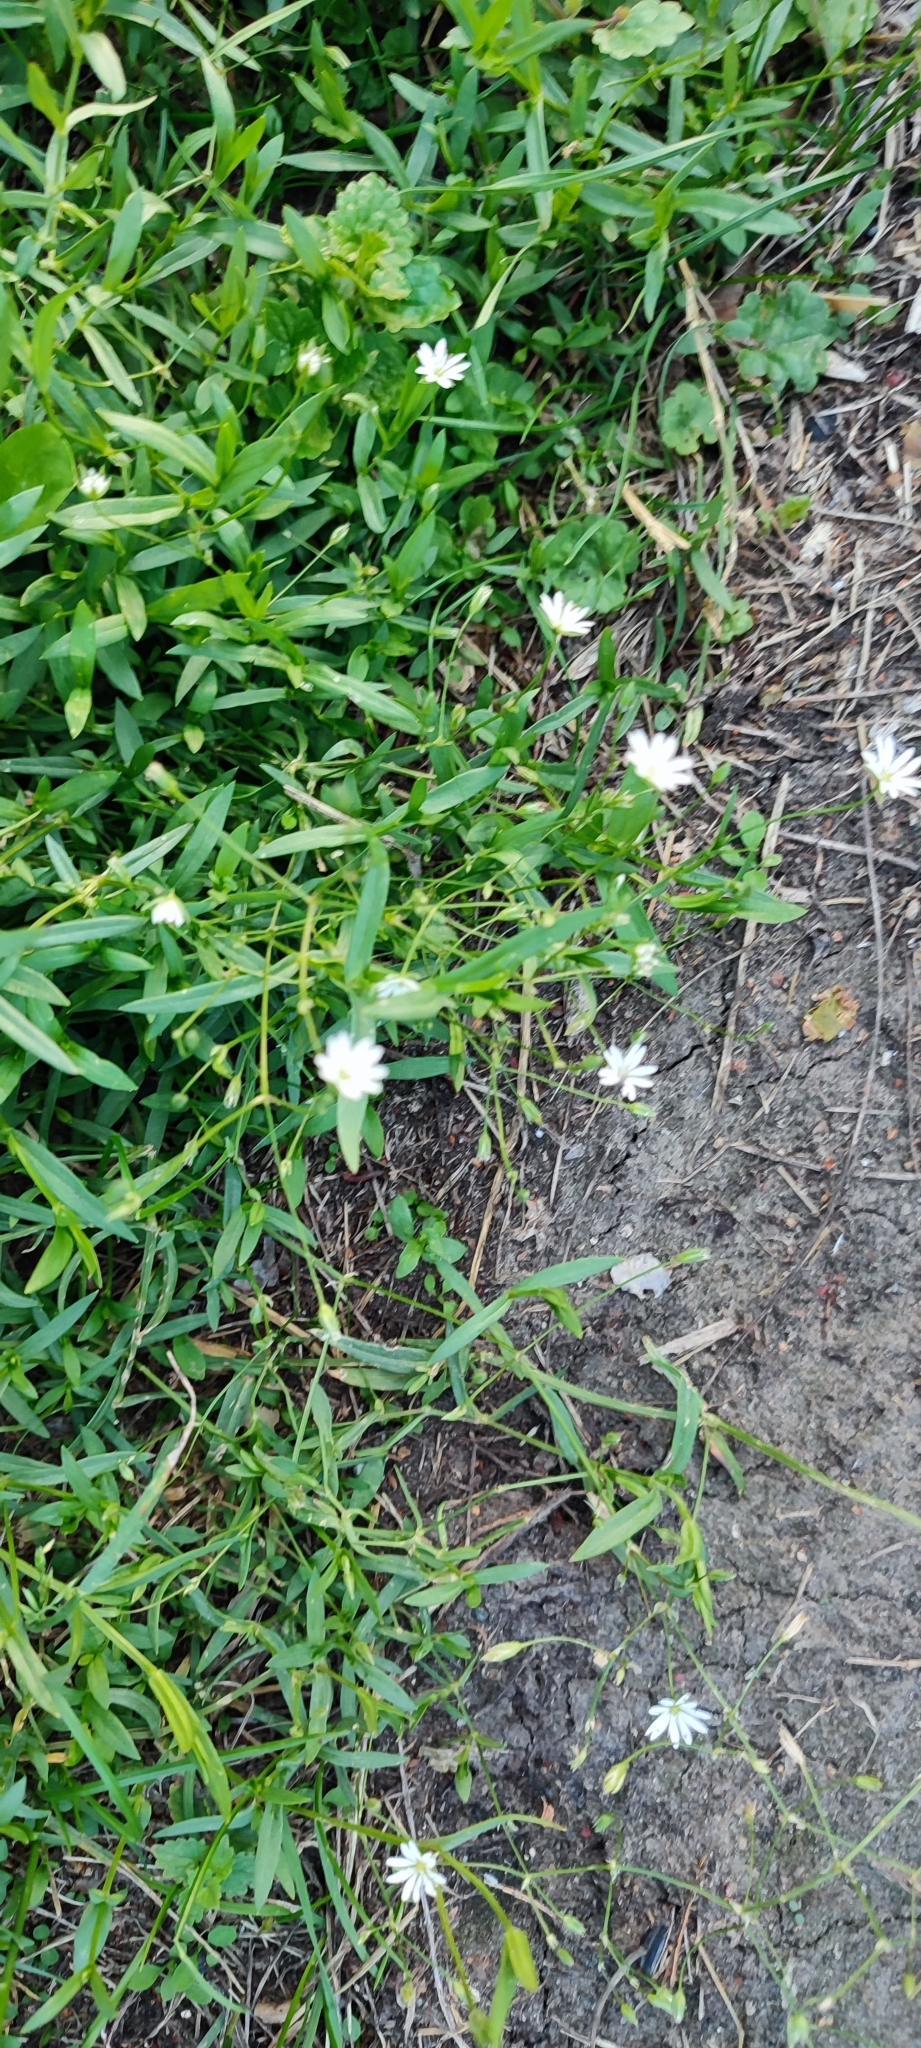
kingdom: Plantae
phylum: Tracheophyta
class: Magnoliopsida
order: Caryophyllales
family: Caryophyllaceae
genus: Stellaria
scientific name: Stellaria graminea
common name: Grass-like starwort
